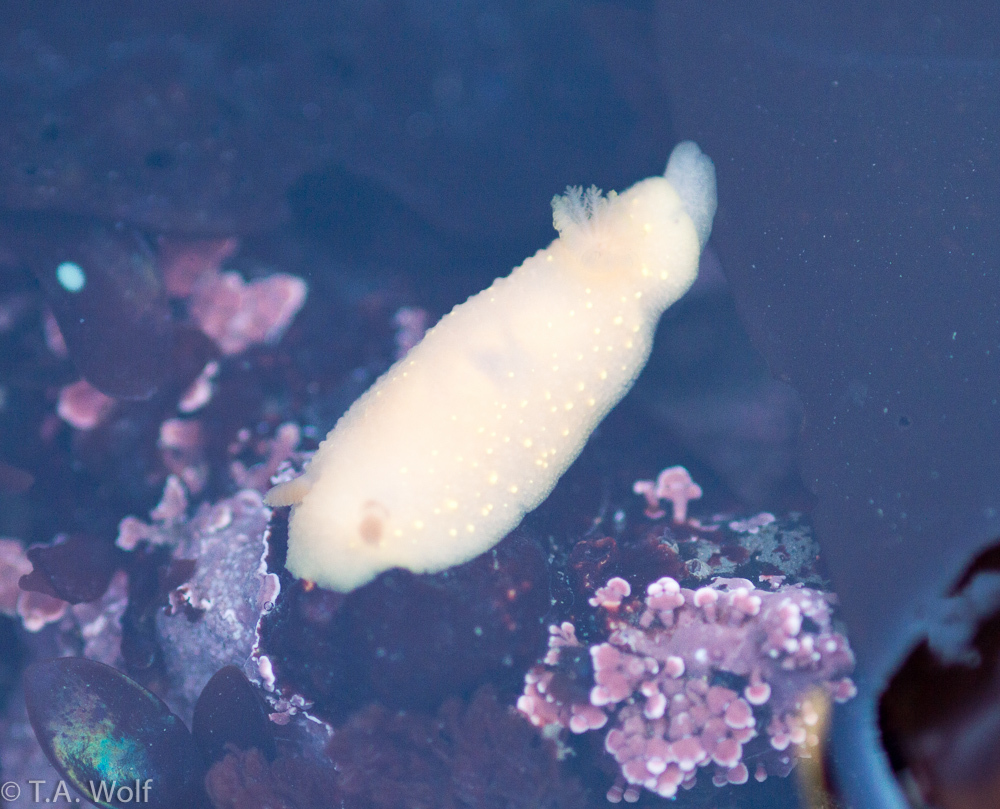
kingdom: Animalia
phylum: Mollusca
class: Gastropoda
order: Nudibranchia
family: Cadlinidae
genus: Cadlina
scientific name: Cadlina modesta
